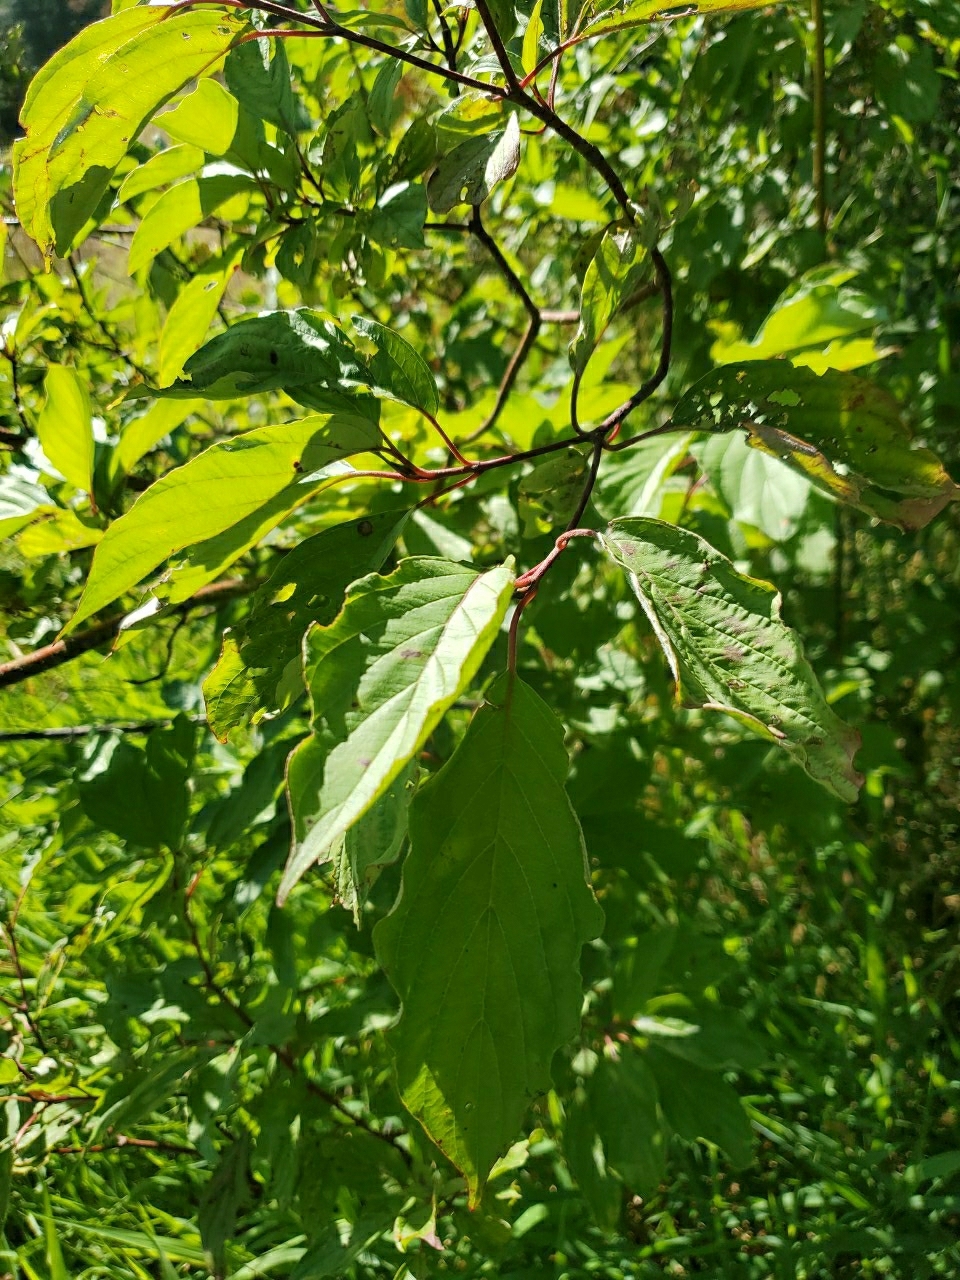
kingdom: Plantae
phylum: Tracheophyta
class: Magnoliopsida
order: Cornales
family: Cornaceae
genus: Cornus
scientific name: Cornus sericea
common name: Red-osier dogwood
